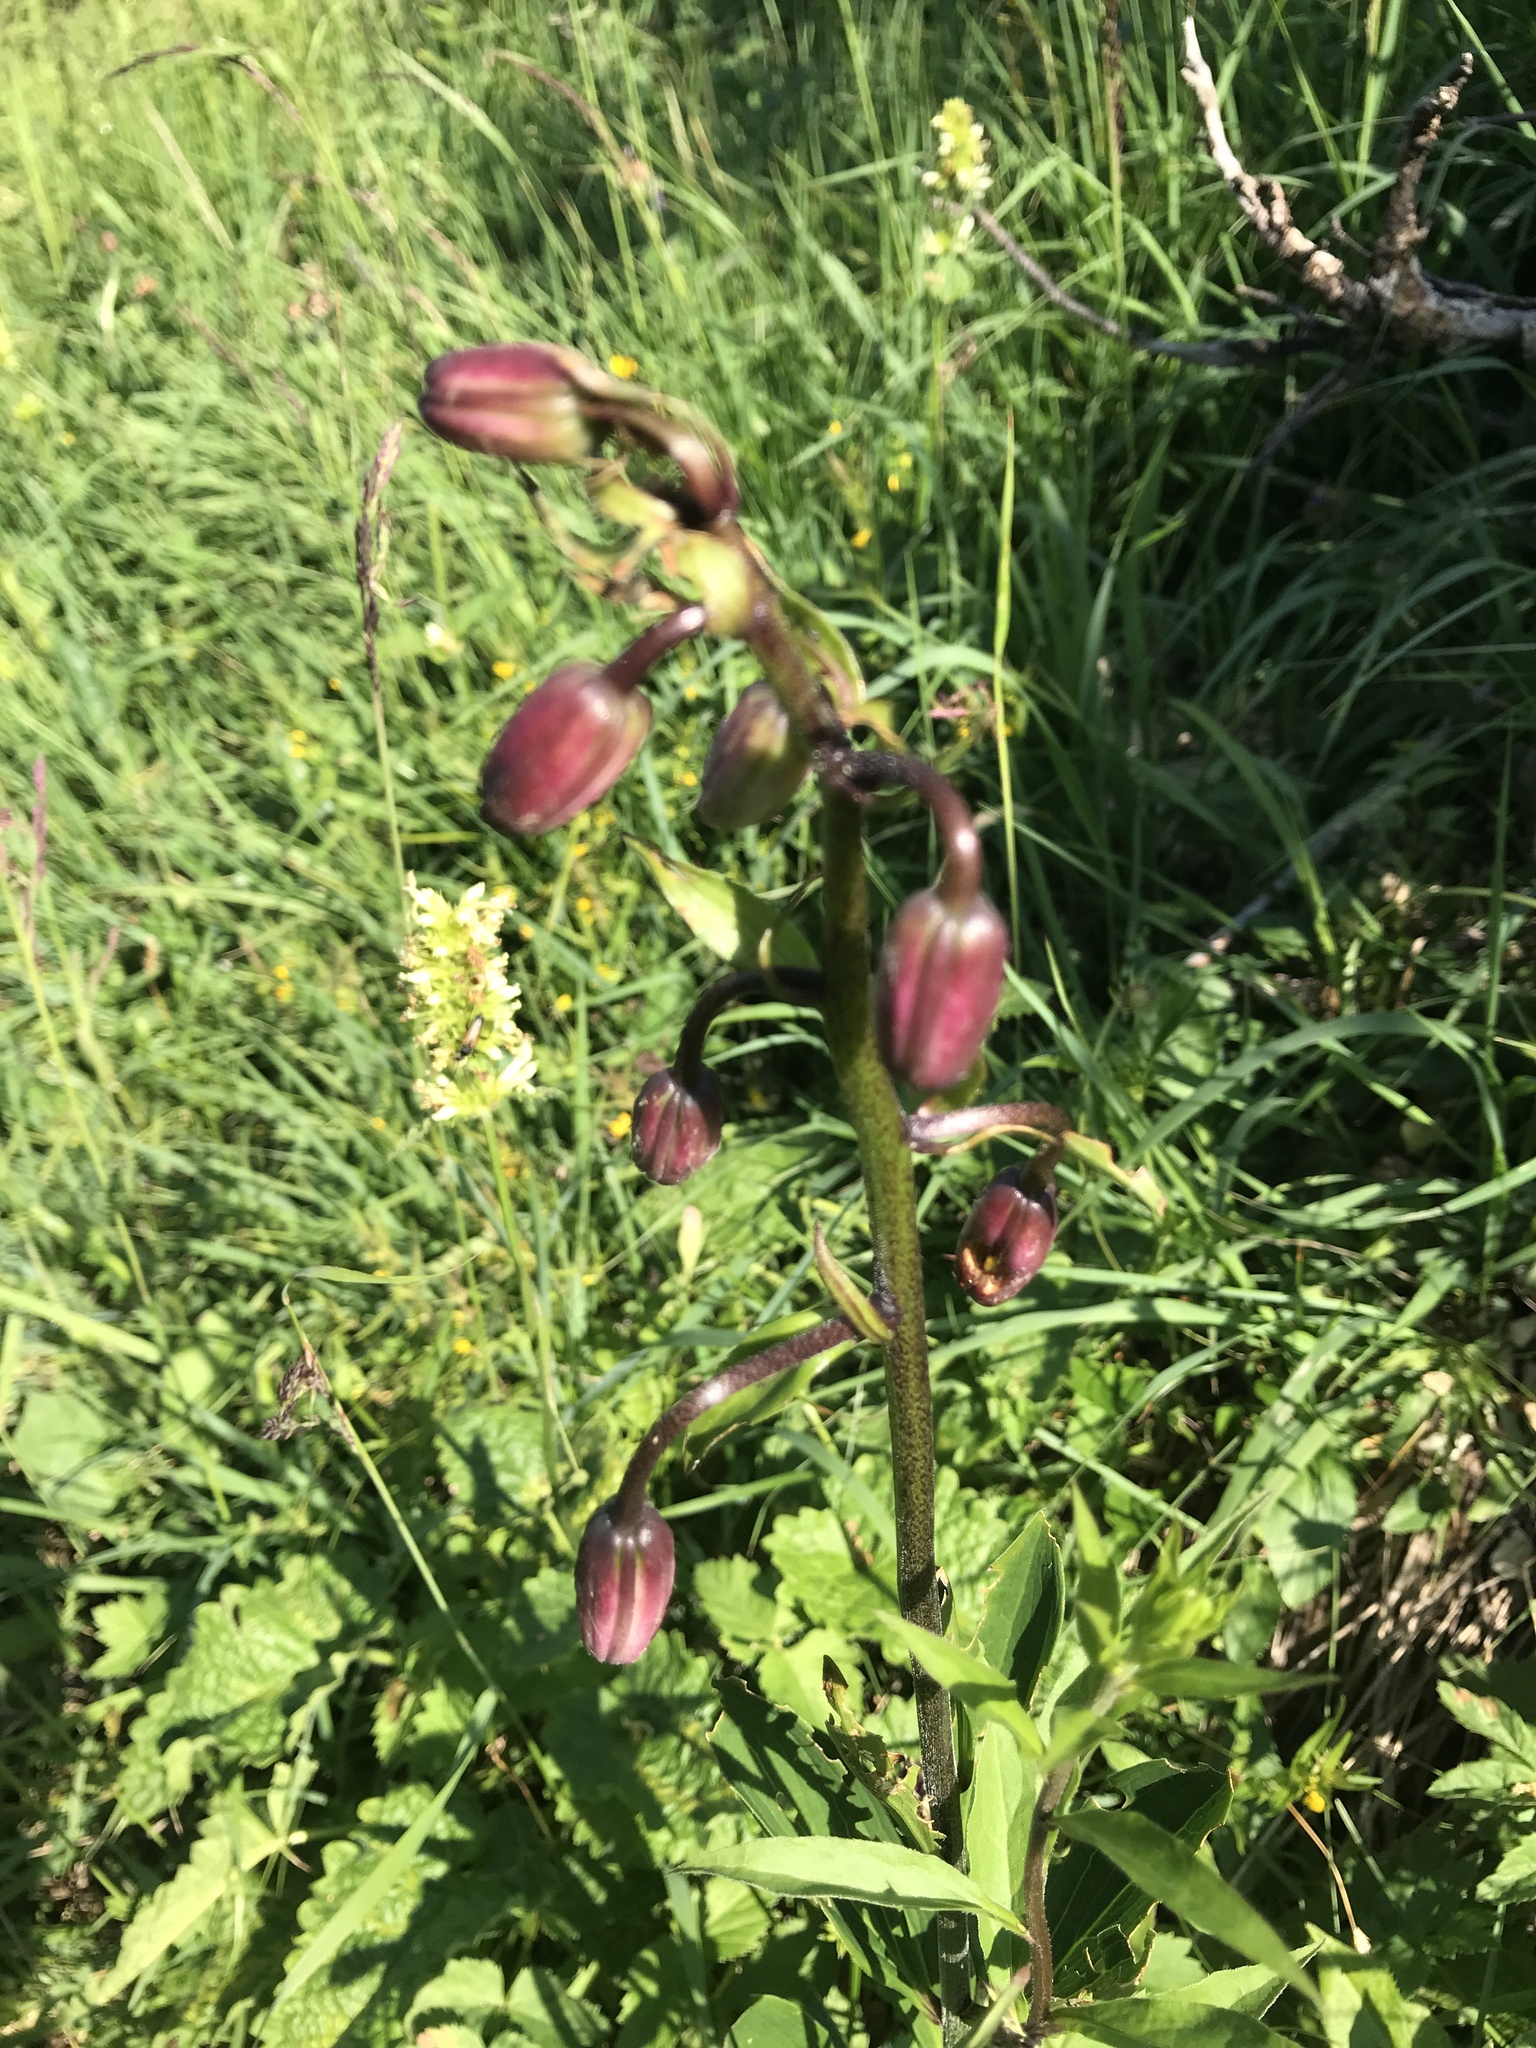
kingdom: Plantae
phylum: Tracheophyta
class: Liliopsida
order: Liliales
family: Liliaceae
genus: Lilium
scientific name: Lilium martagon
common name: Martagon lily
